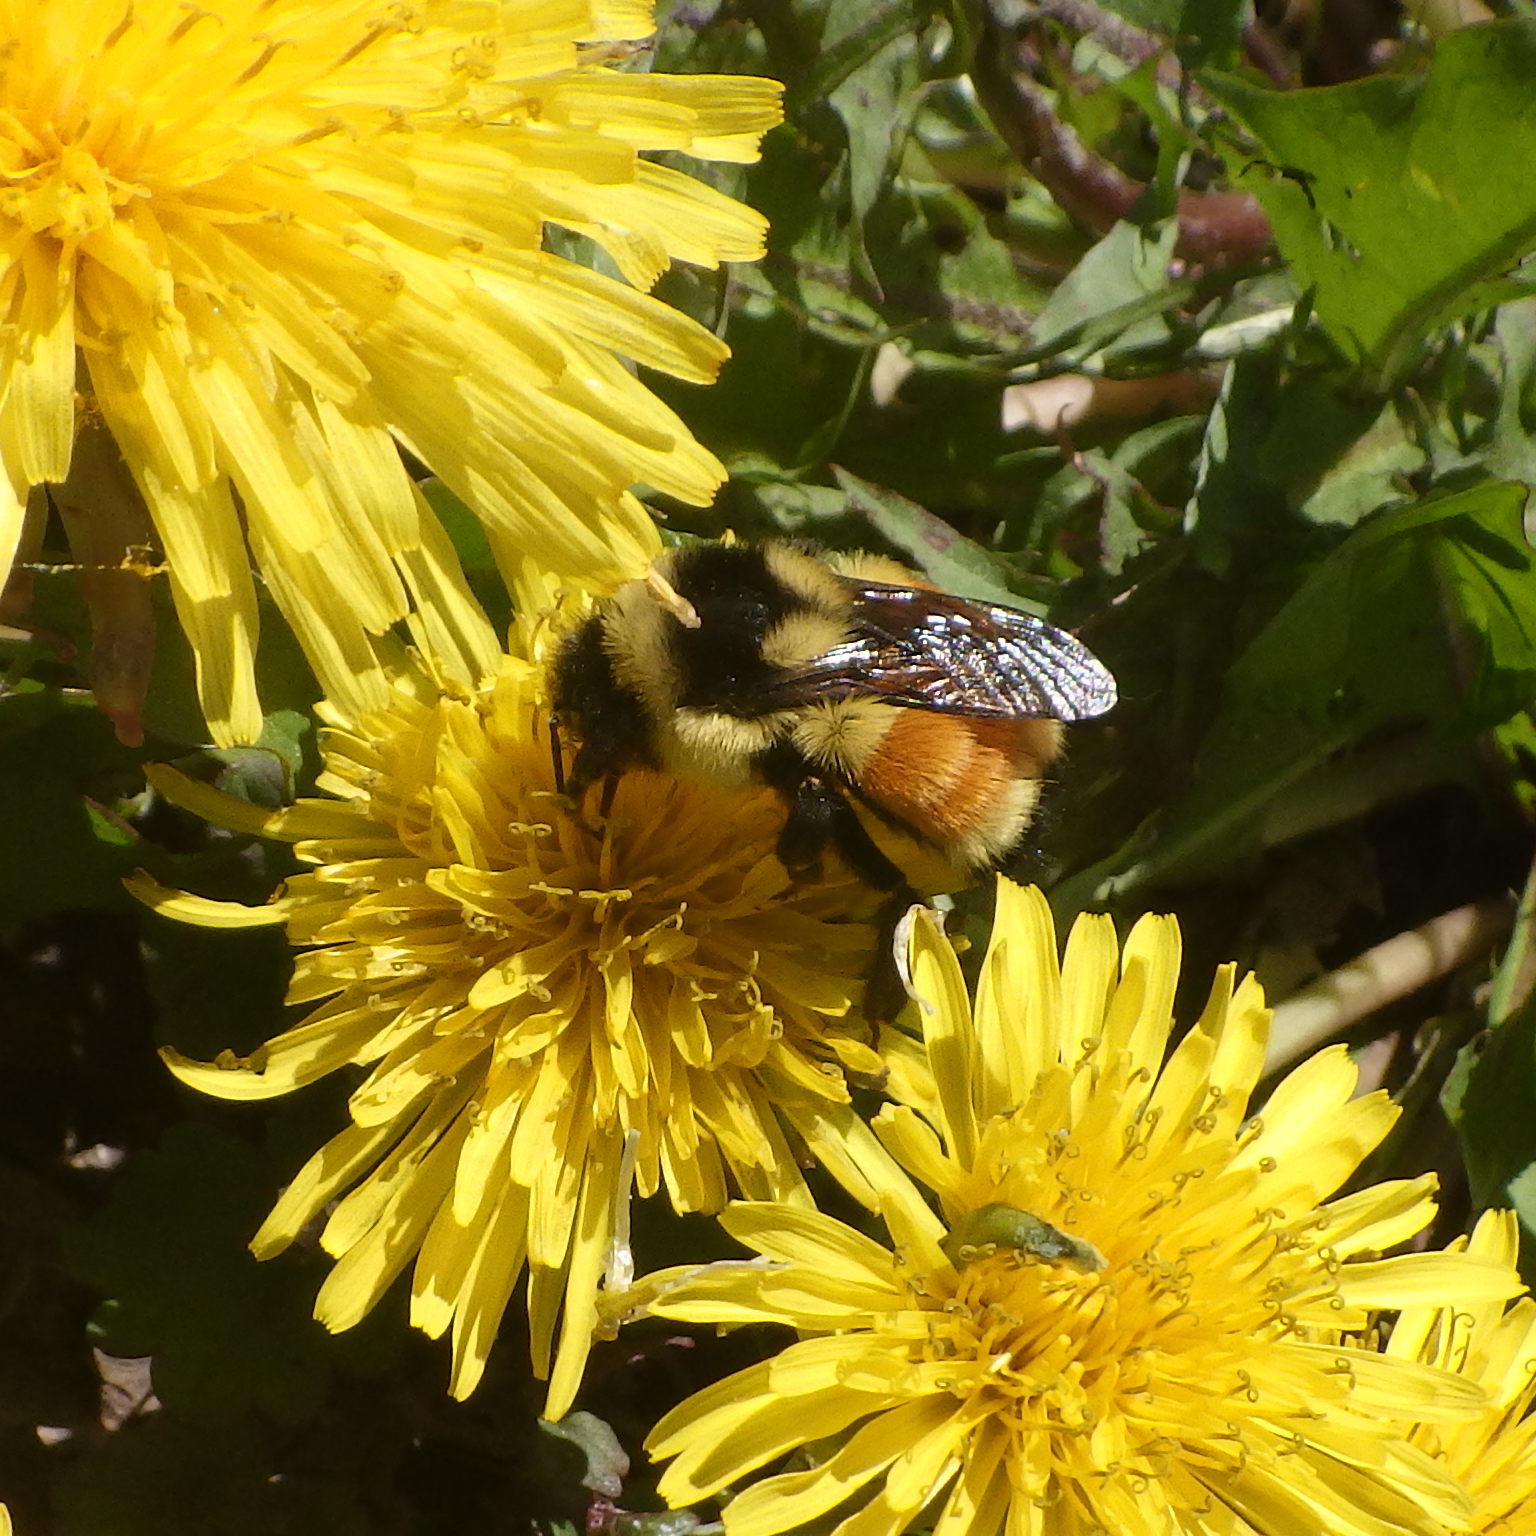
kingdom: Animalia
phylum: Arthropoda
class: Insecta
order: Hymenoptera
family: Apidae
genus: Bombus
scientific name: Bombus ternarius
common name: Tri-colored bumble bee
